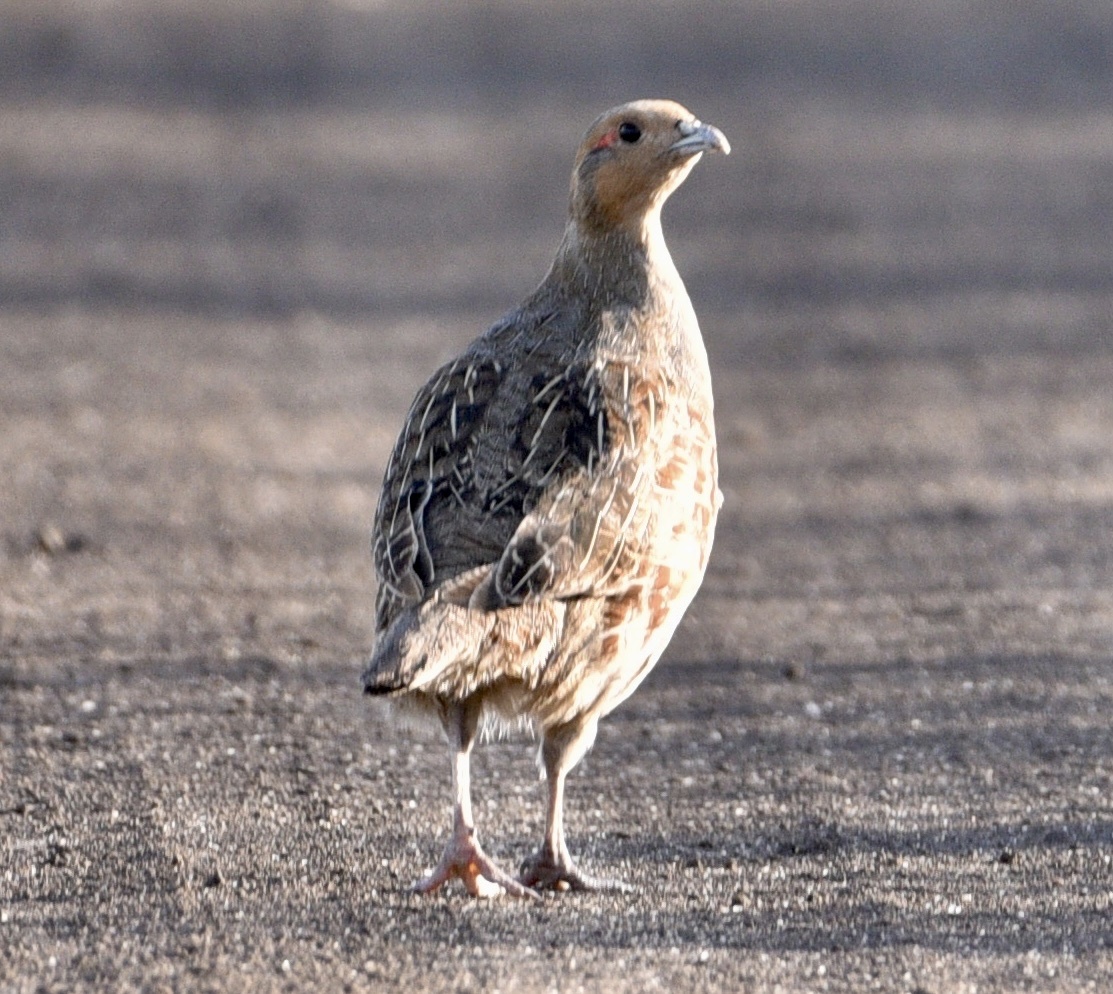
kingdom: Animalia
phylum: Chordata
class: Aves
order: Galliformes
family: Phasianidae
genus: Perdix
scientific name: Perdix perdix
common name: Grey partridge
